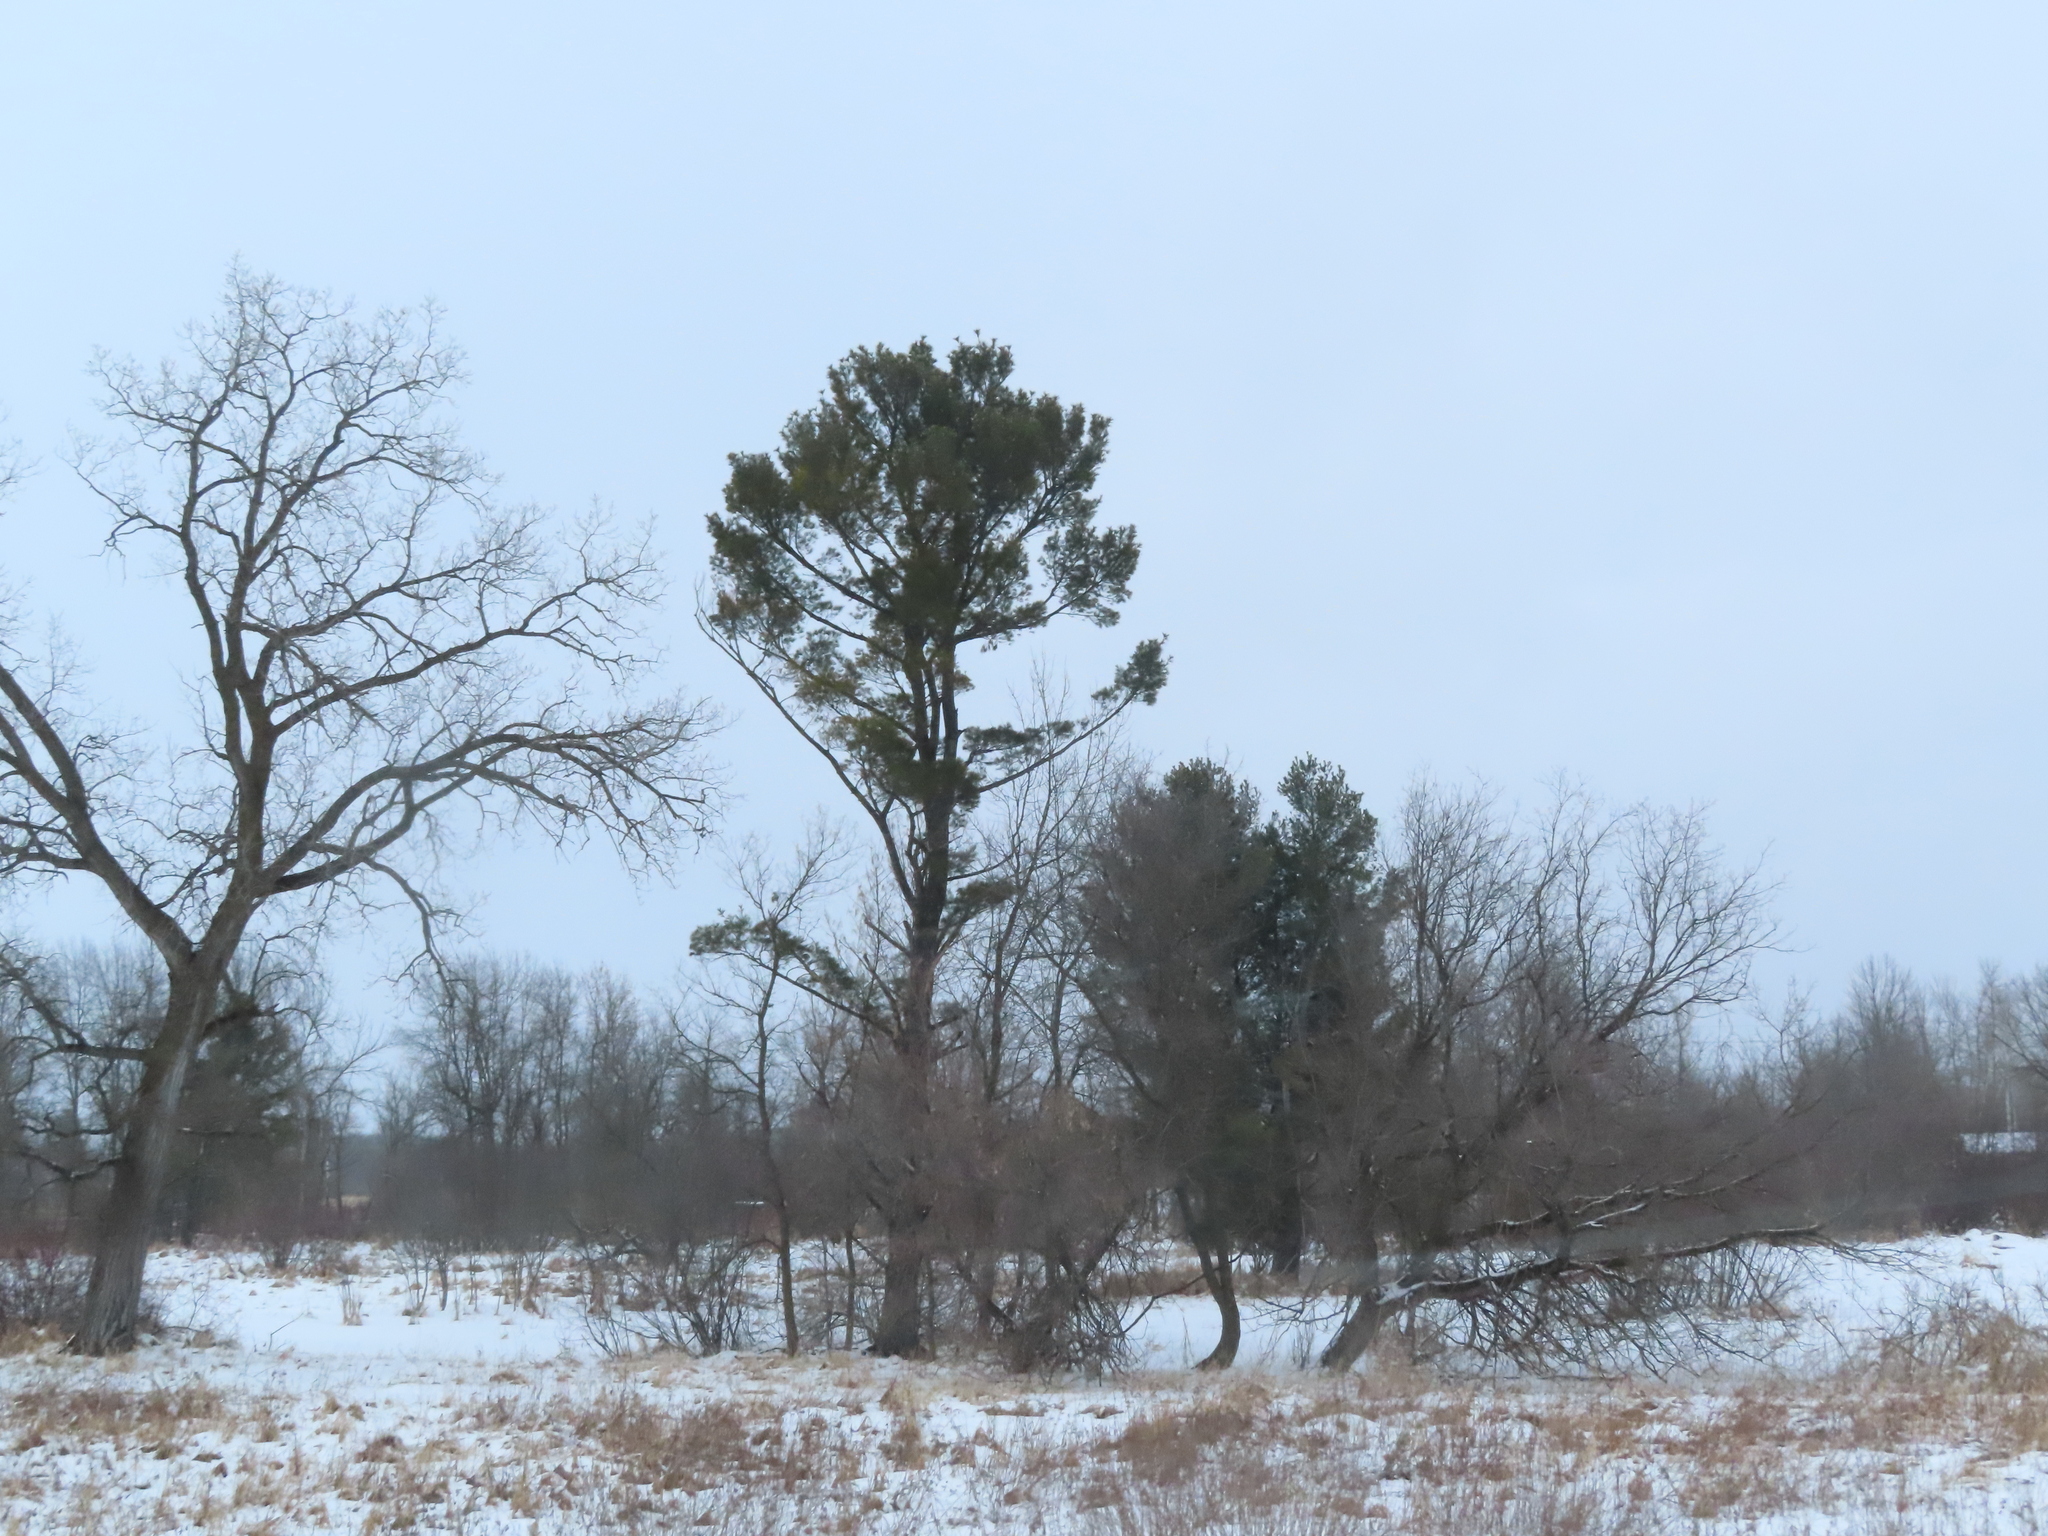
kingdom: Plantae
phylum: Tracheophyta
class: Pinopsida
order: Pinales
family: Pinaceae
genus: Pinus
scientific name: Pinus strobus
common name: Weymouth pine
